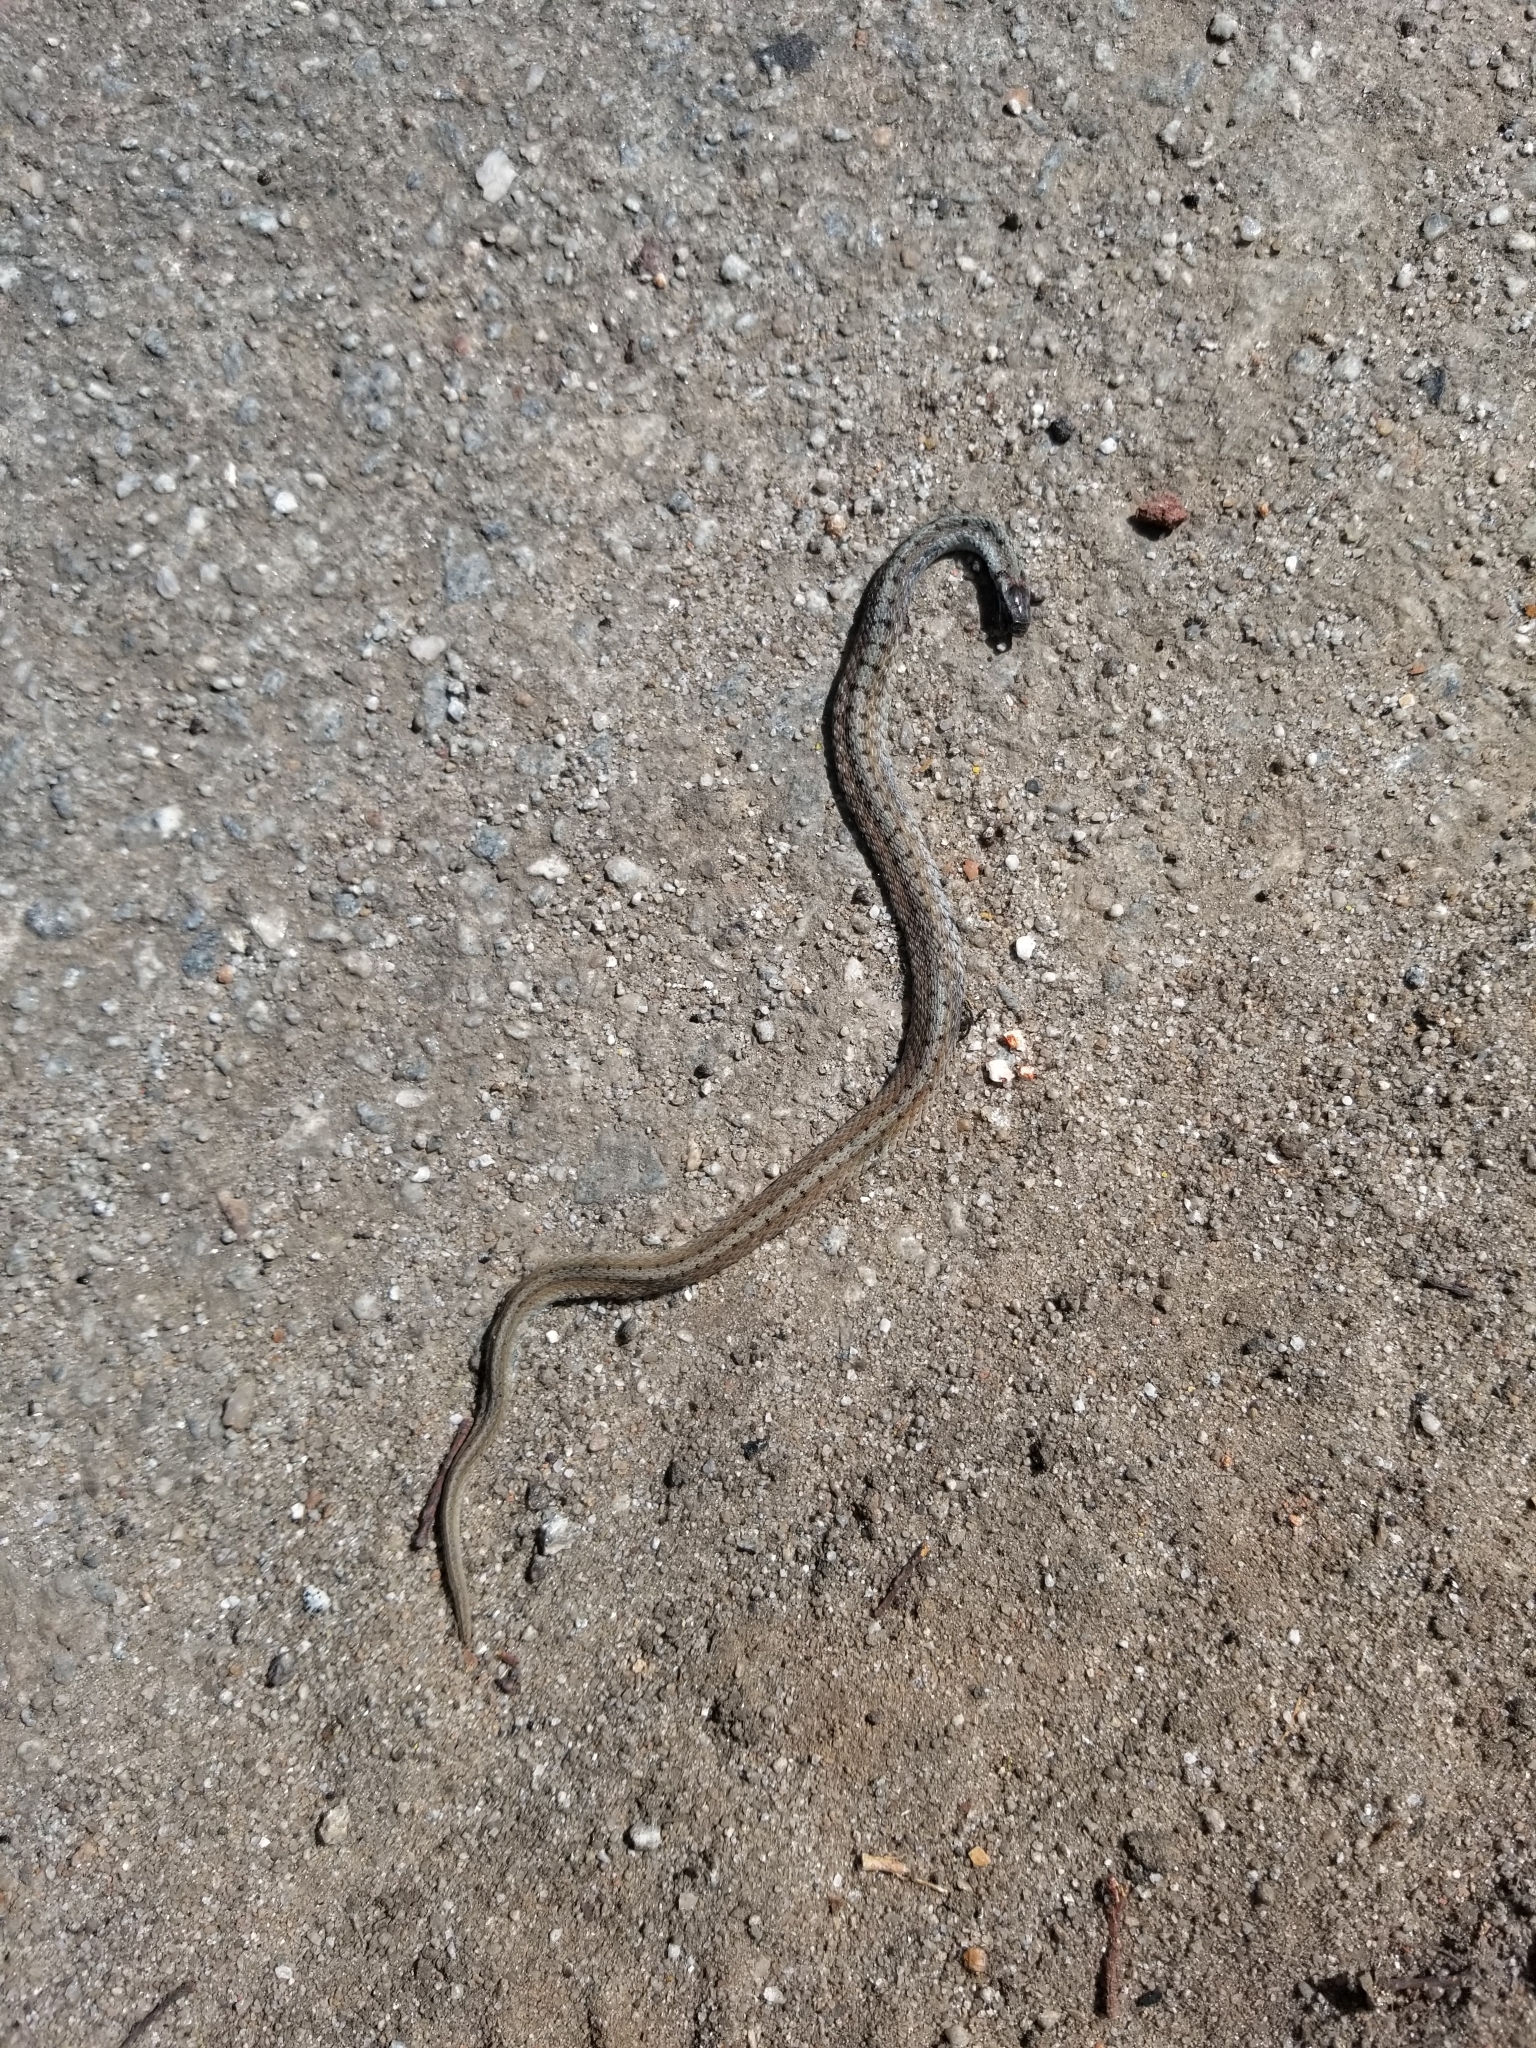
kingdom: Animalia
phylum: Chordata
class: Squamata
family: Colubridae
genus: Storeria
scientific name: Storeria dekayi
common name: (dekay’s) brown snake
